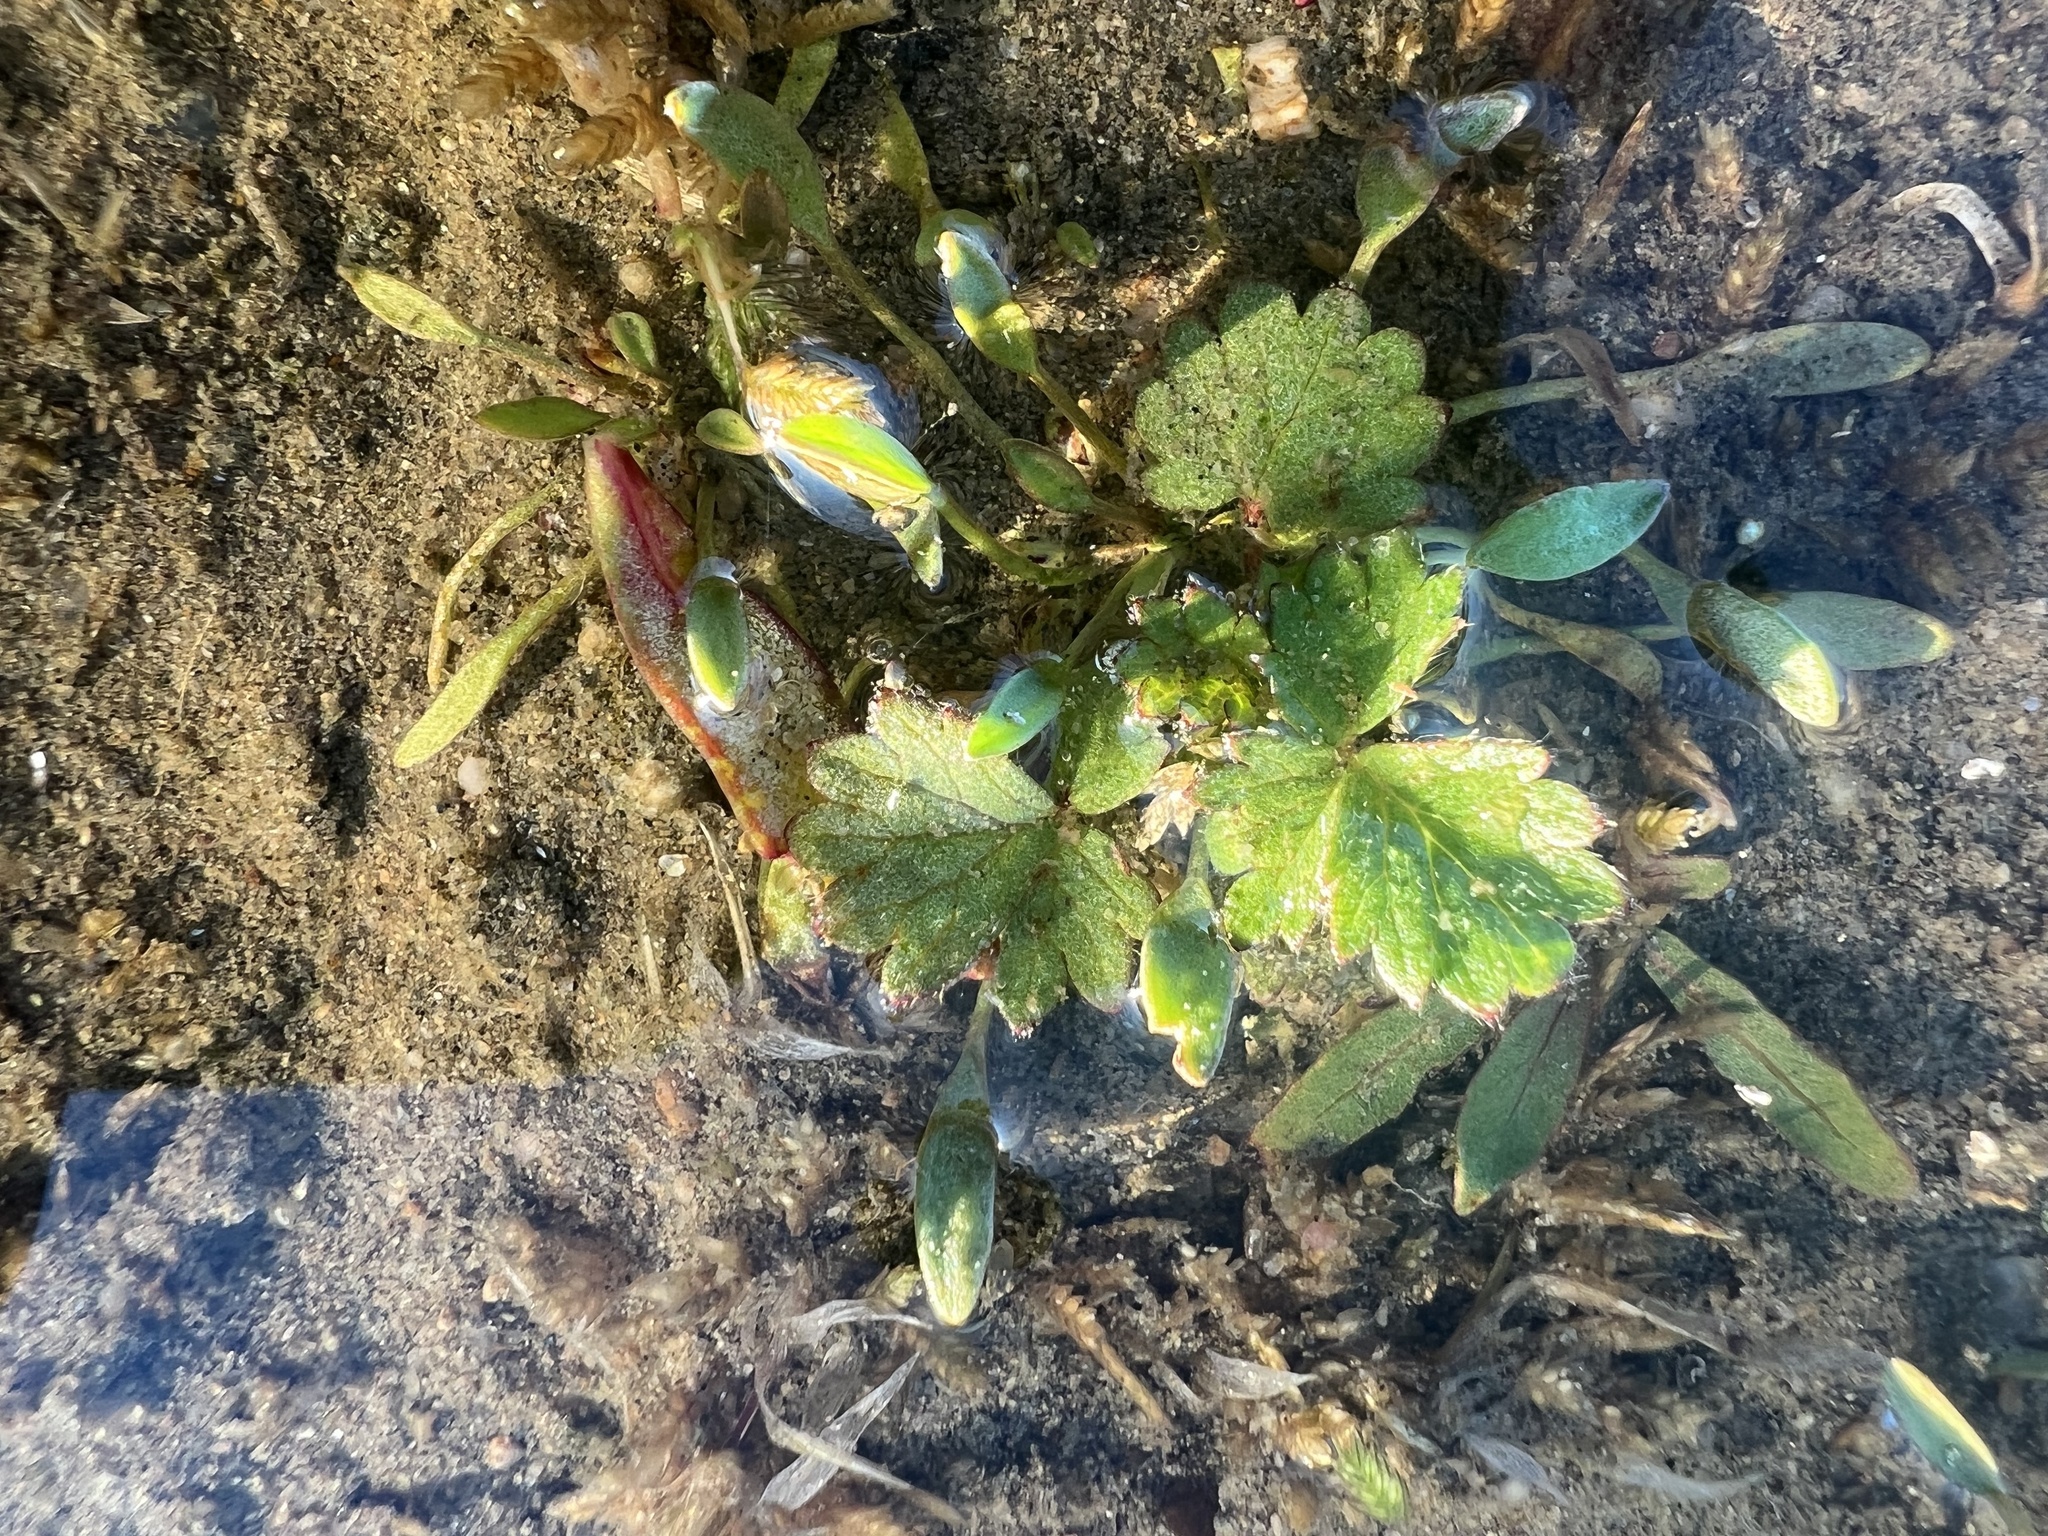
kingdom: Plantae
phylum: Tracheophyta
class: Magnoliopsida
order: Rosales
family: Rosaceae
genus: Potentilla
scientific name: Potentilla norvegica
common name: Ternate-leaved cinquefoil
